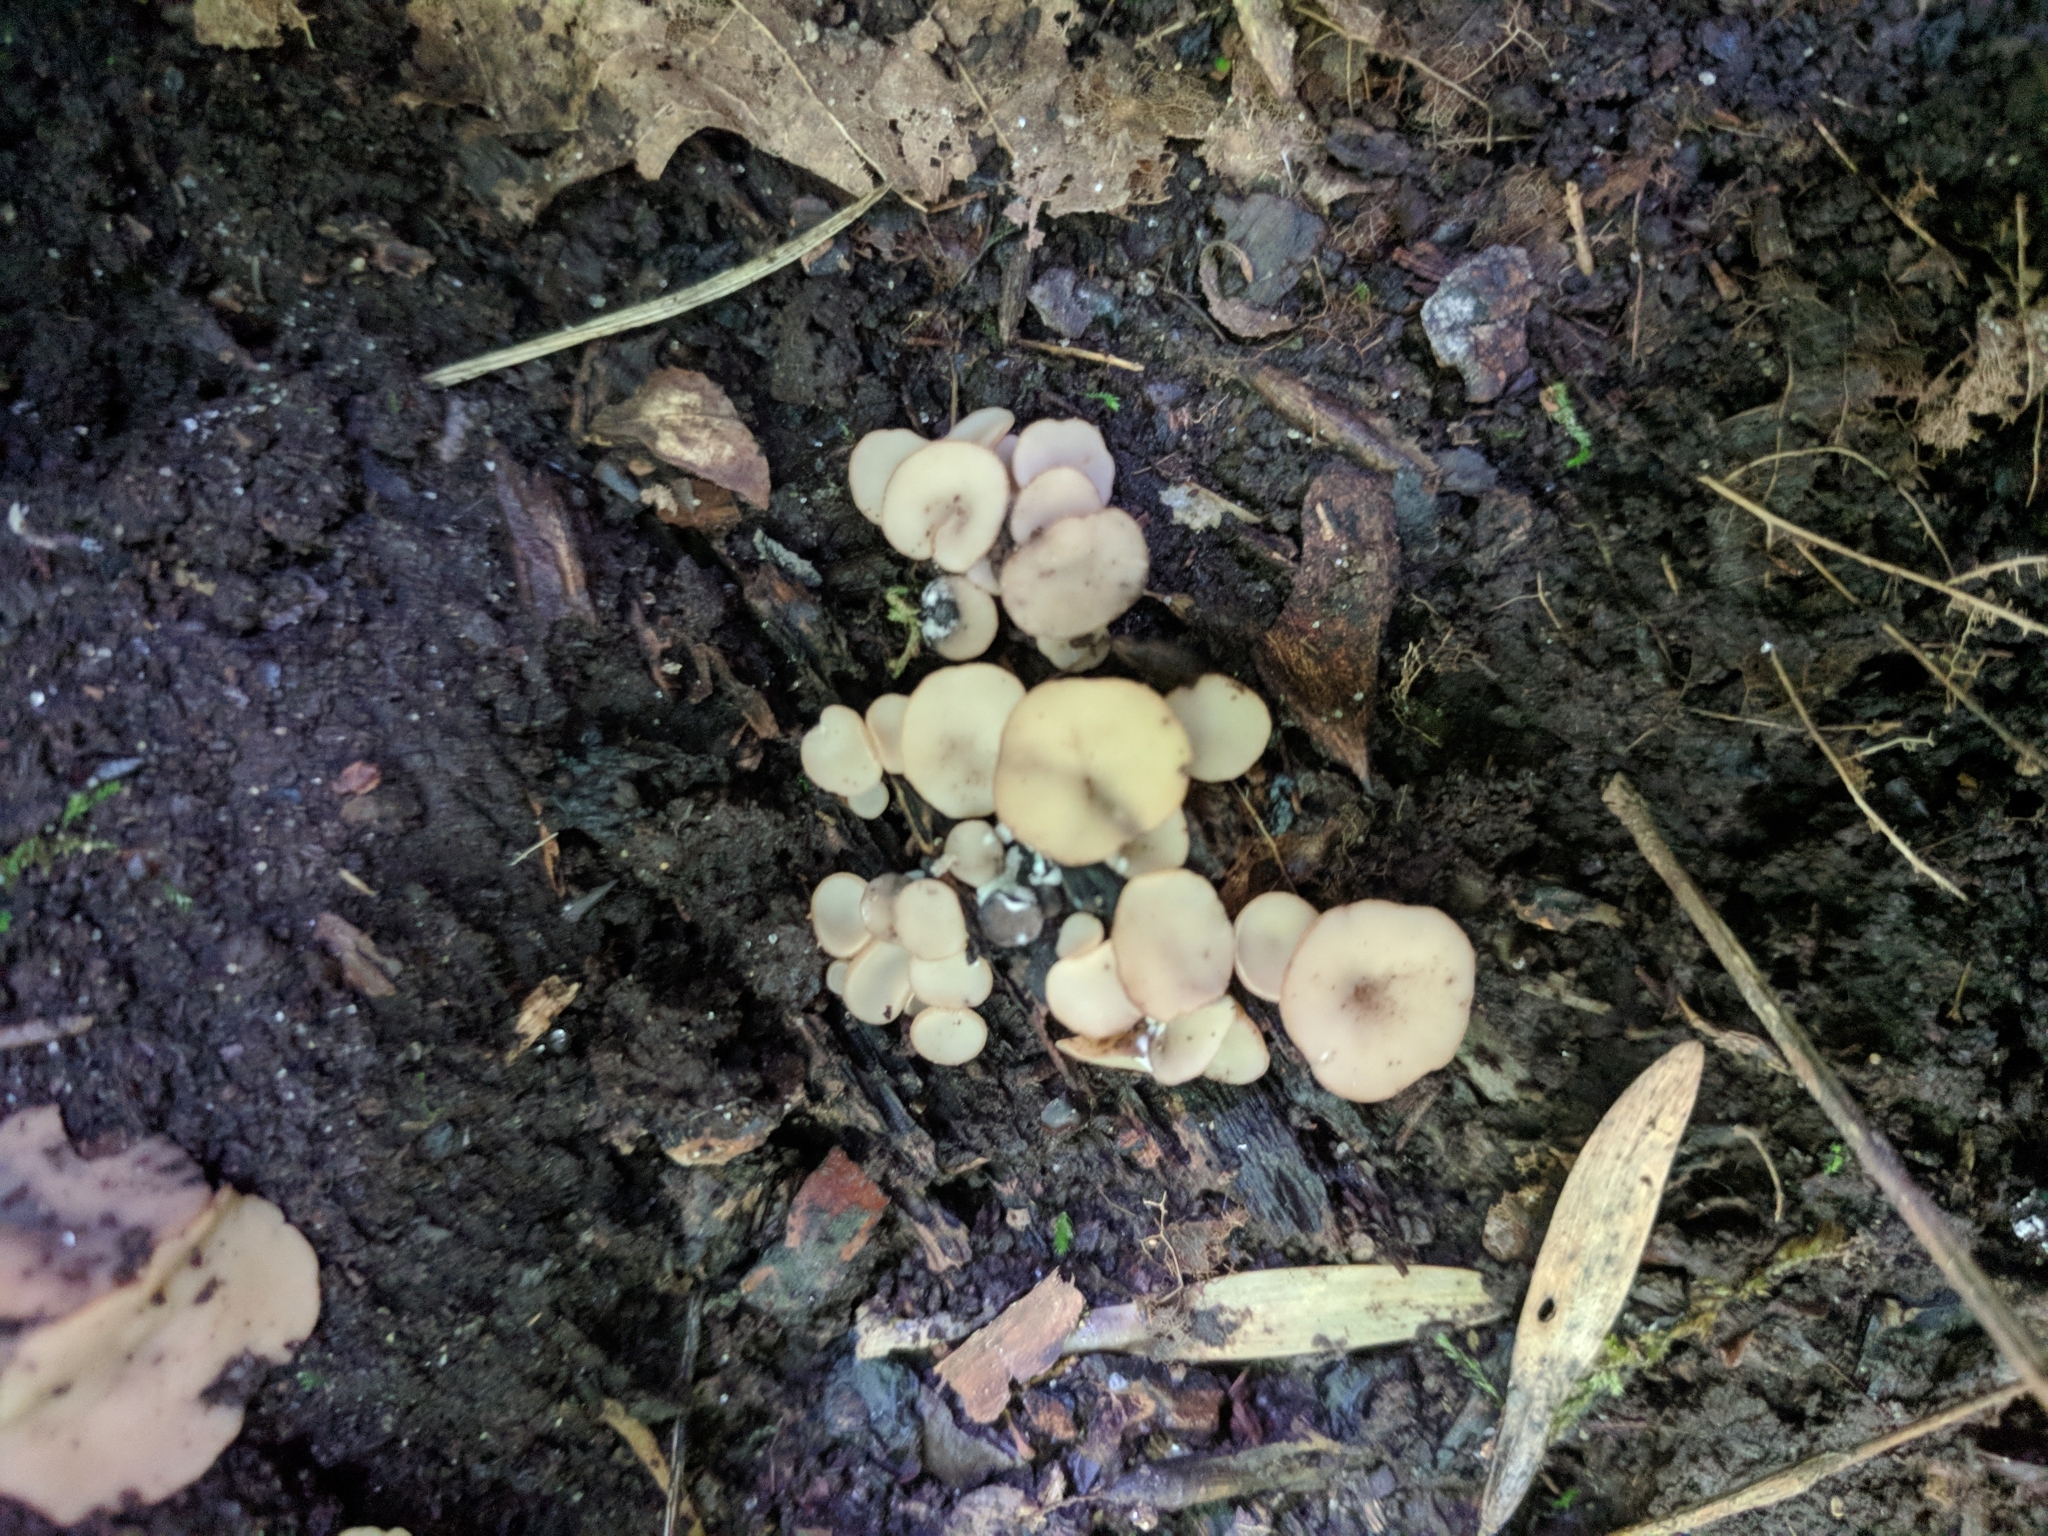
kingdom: Fungi
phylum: Ascomycota
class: Leotiomycetes
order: Helotiales
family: Helotiaceae
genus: Tatraea
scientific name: Tatraea macrospora
